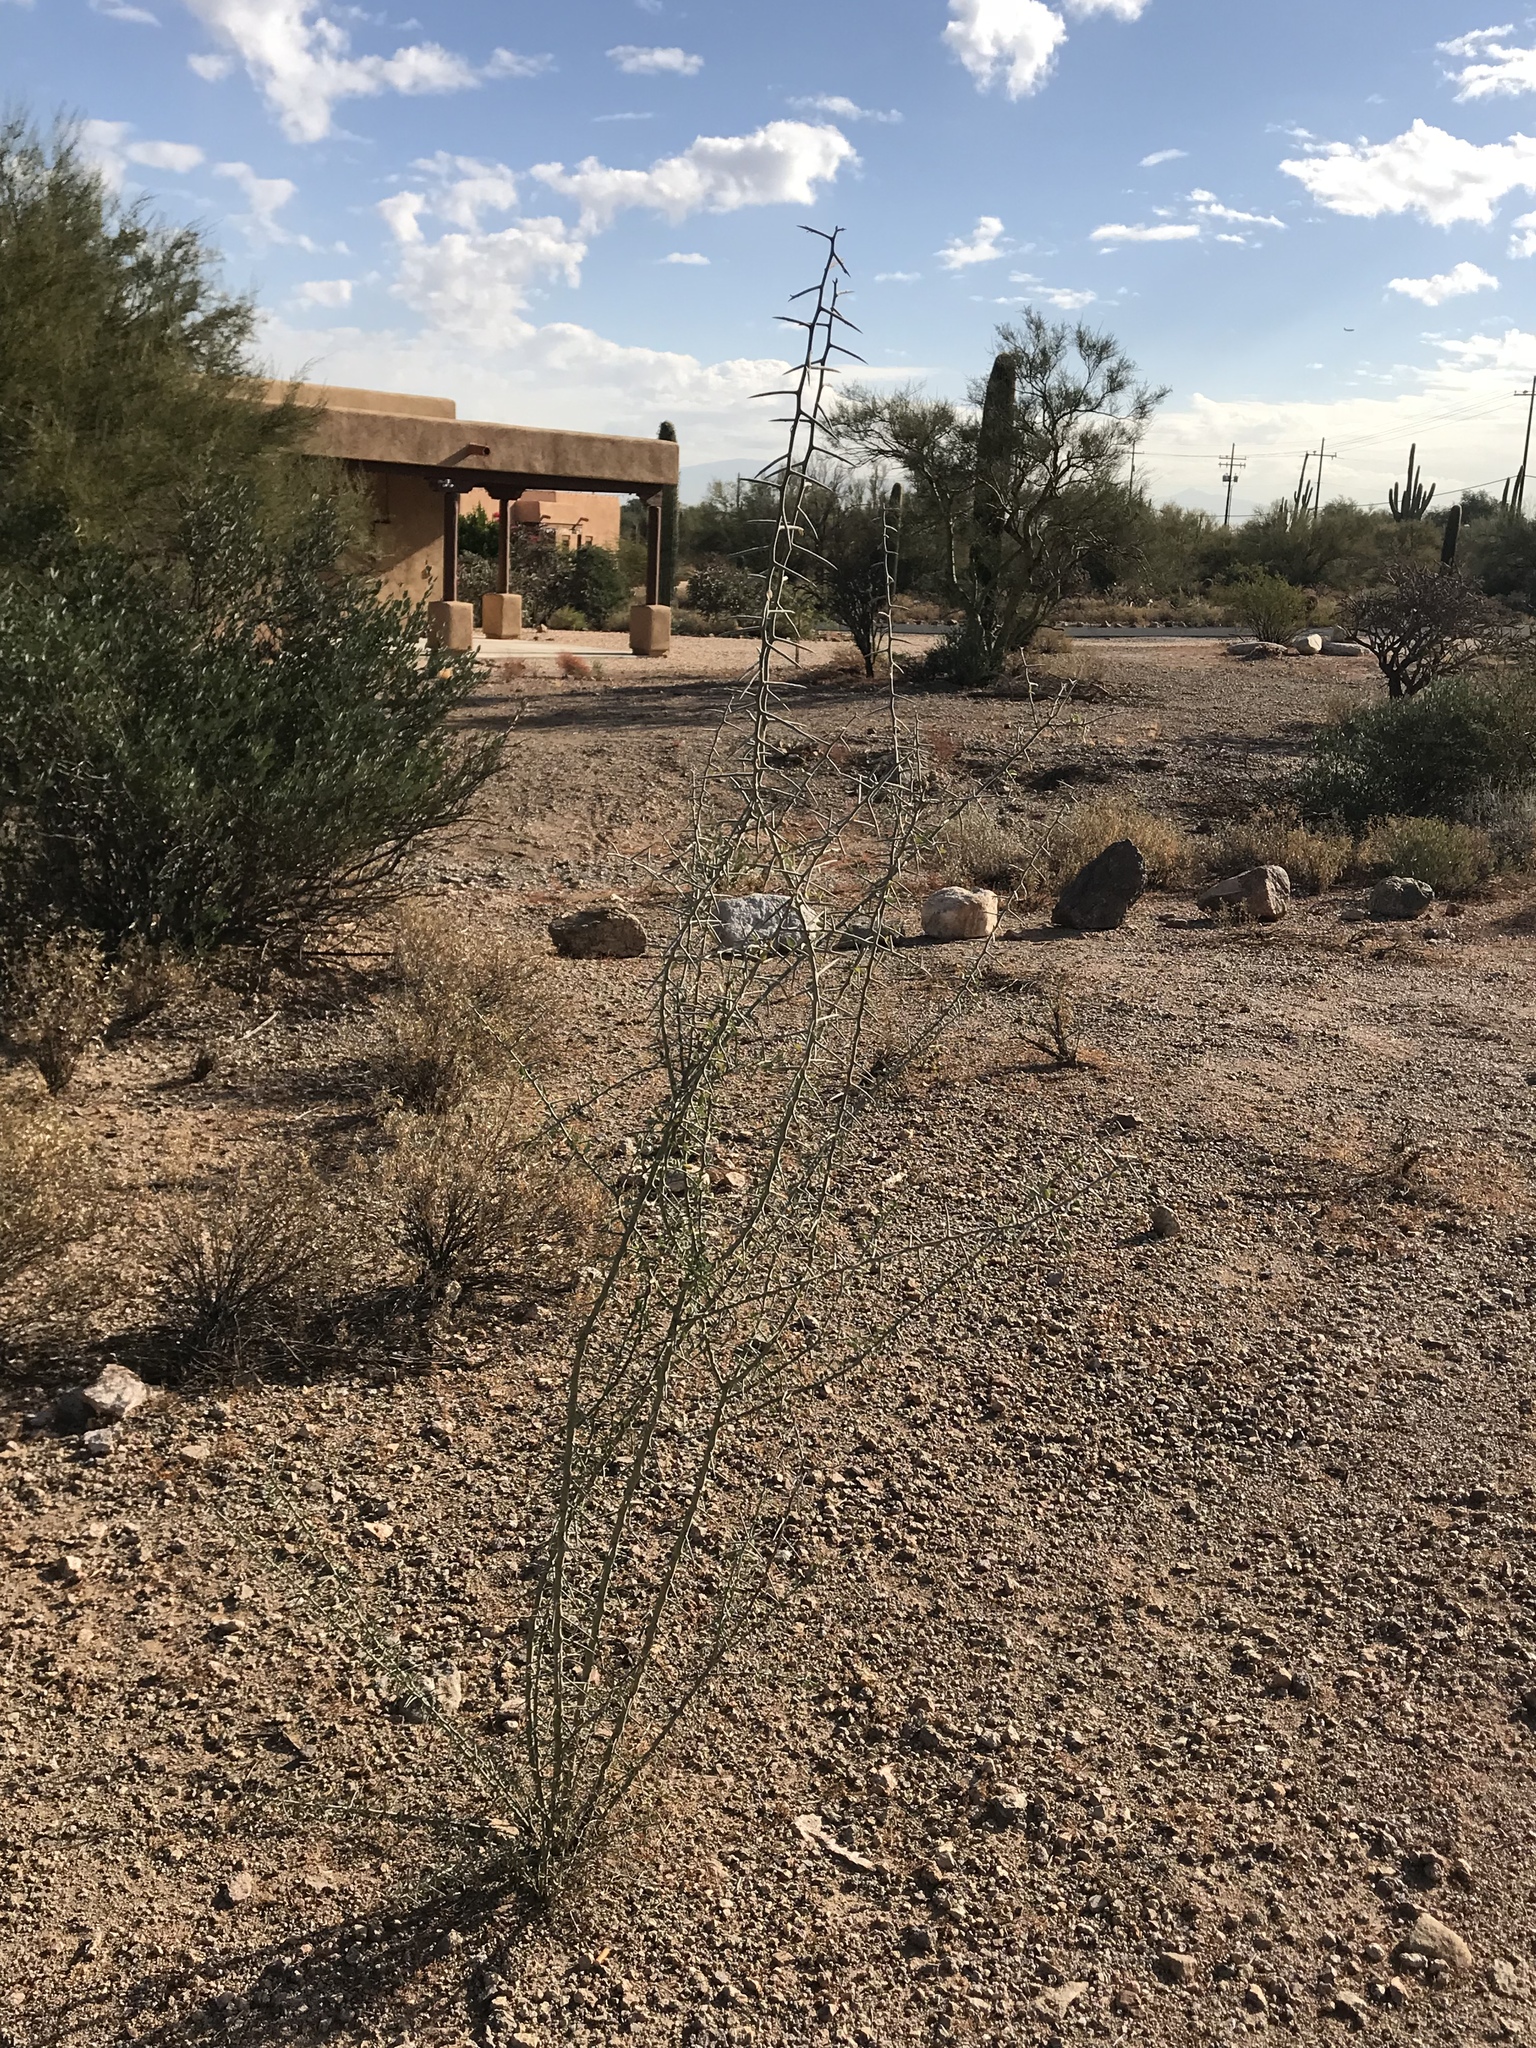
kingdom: Plantae
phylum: Tracheophyta
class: Magnoliopsida
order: Rosales
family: Rhamnaceae
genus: Sarcomphalus
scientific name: Sarcomphalus obtusifolius
